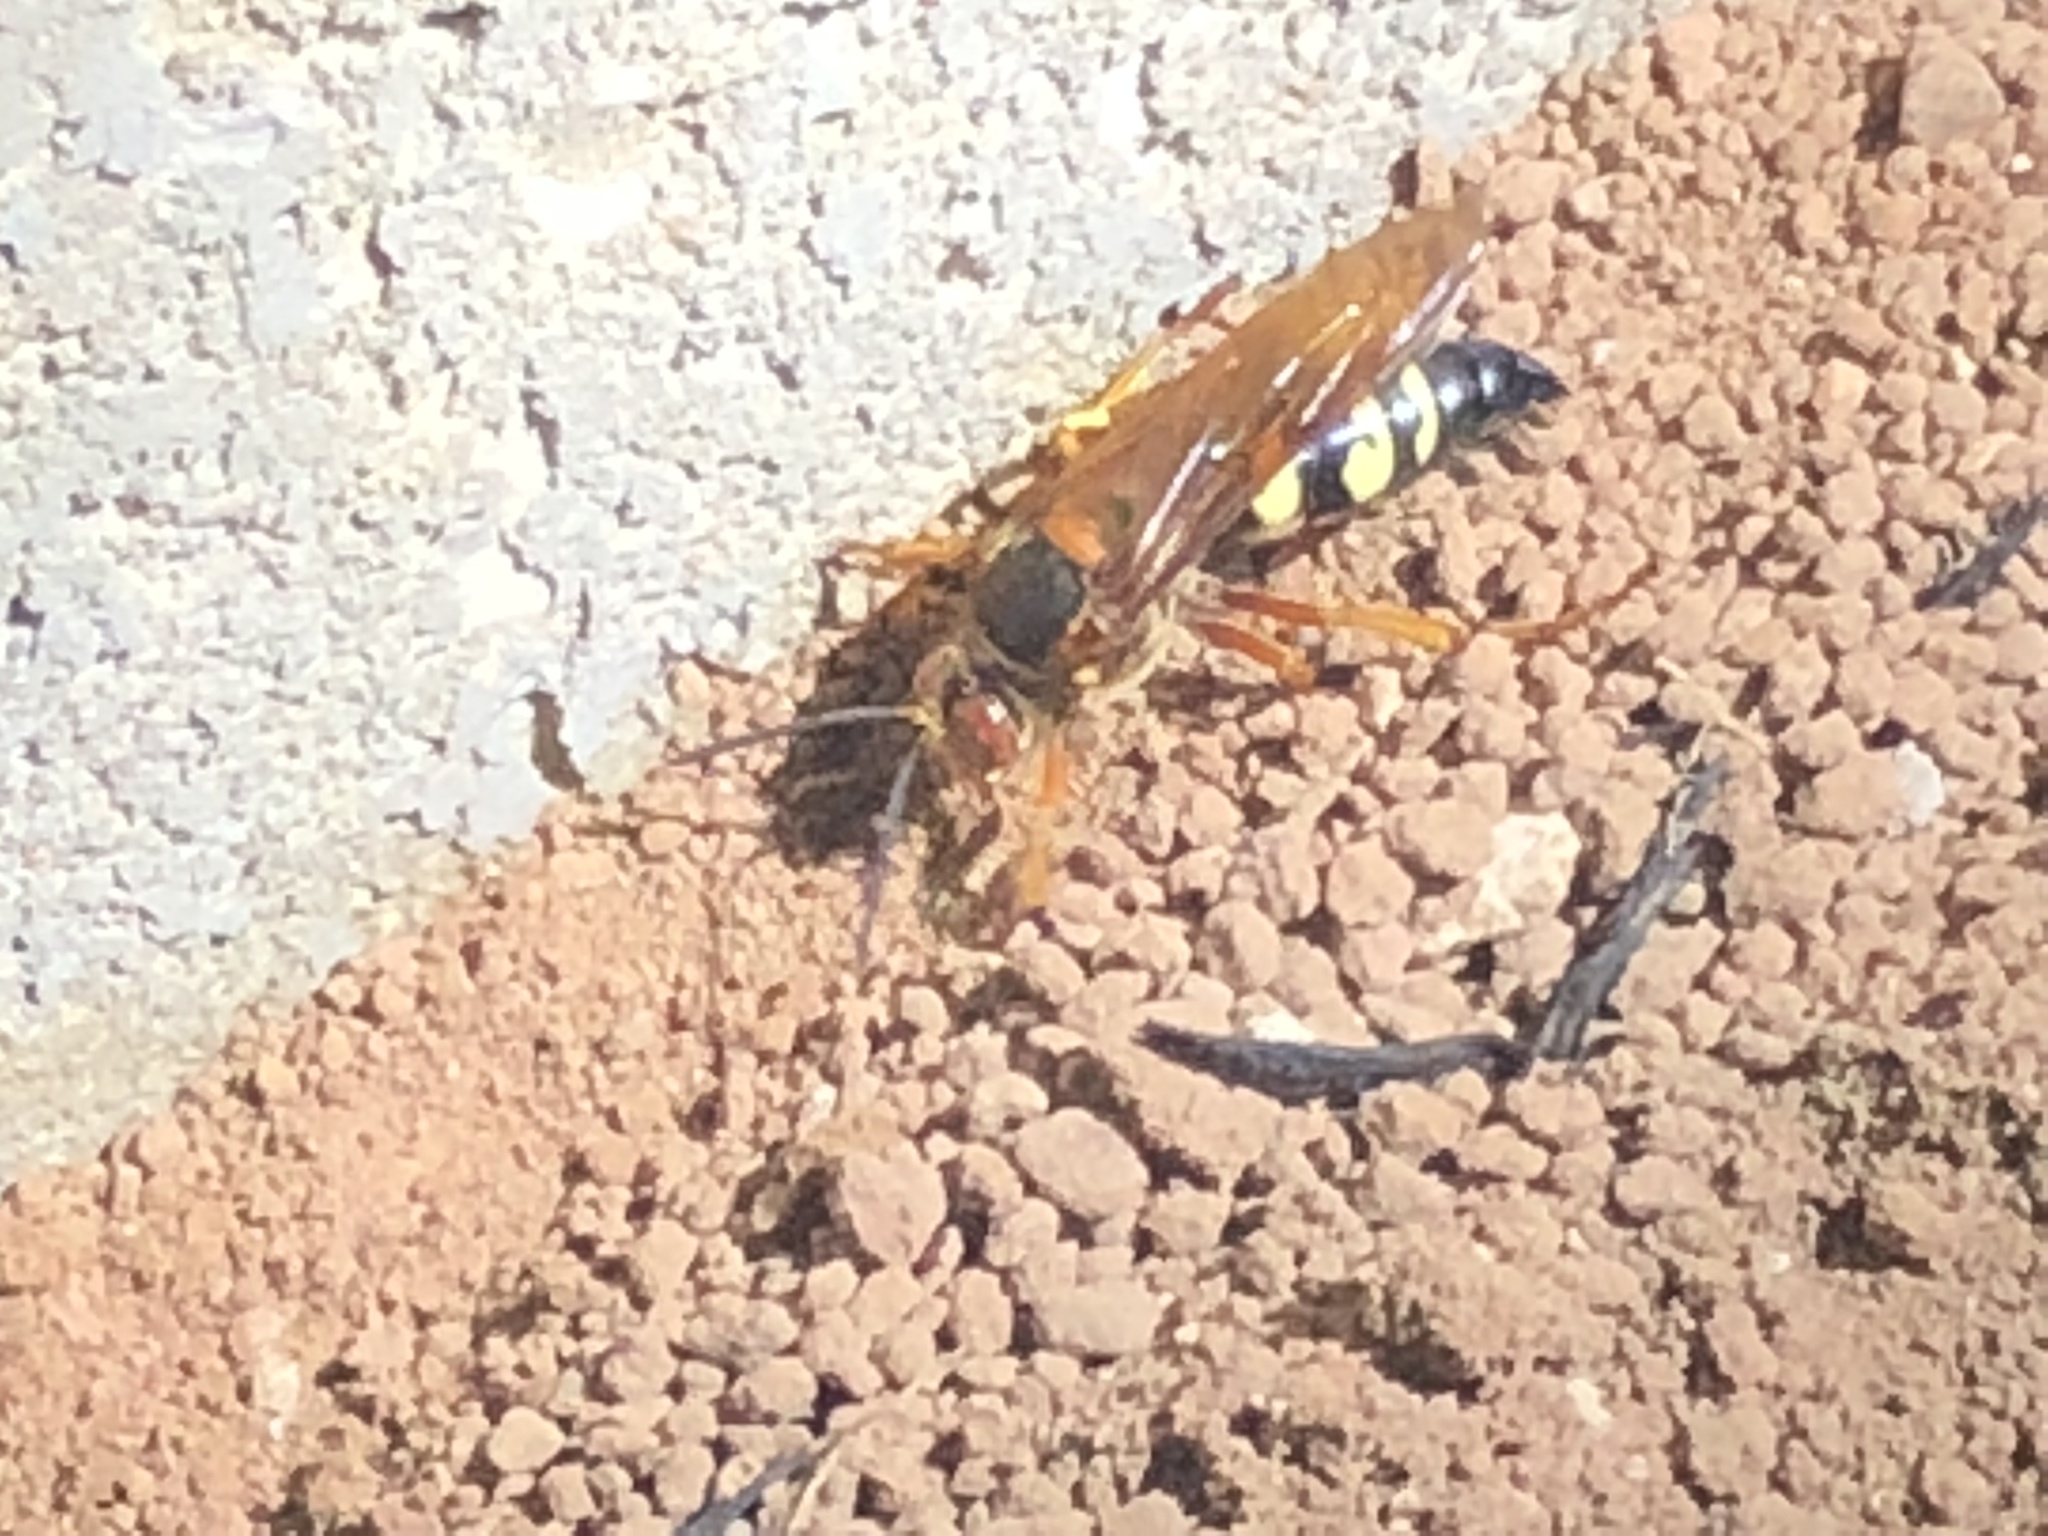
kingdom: Animalia
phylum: Arthropoda
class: Insecta
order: Hymenoptera
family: Crabronidae
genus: Sphecius
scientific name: Sphecius speciosus
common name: Cicada killer
